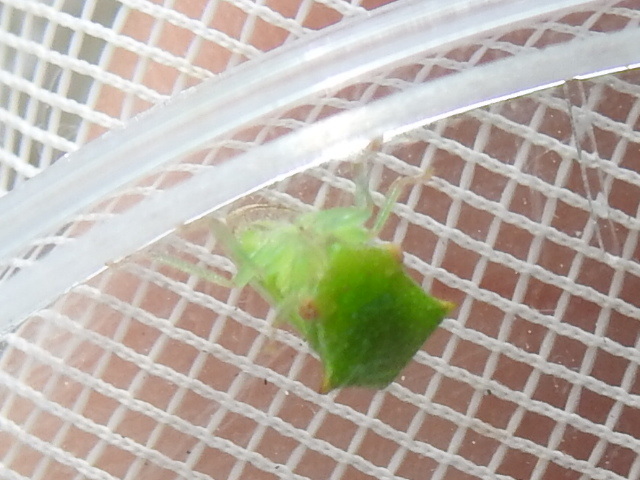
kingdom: Animalia
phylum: Arthropoda
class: Insecta
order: Hemiptera
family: Membracidae
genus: Hadrophallus
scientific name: Hadrophallus varians
